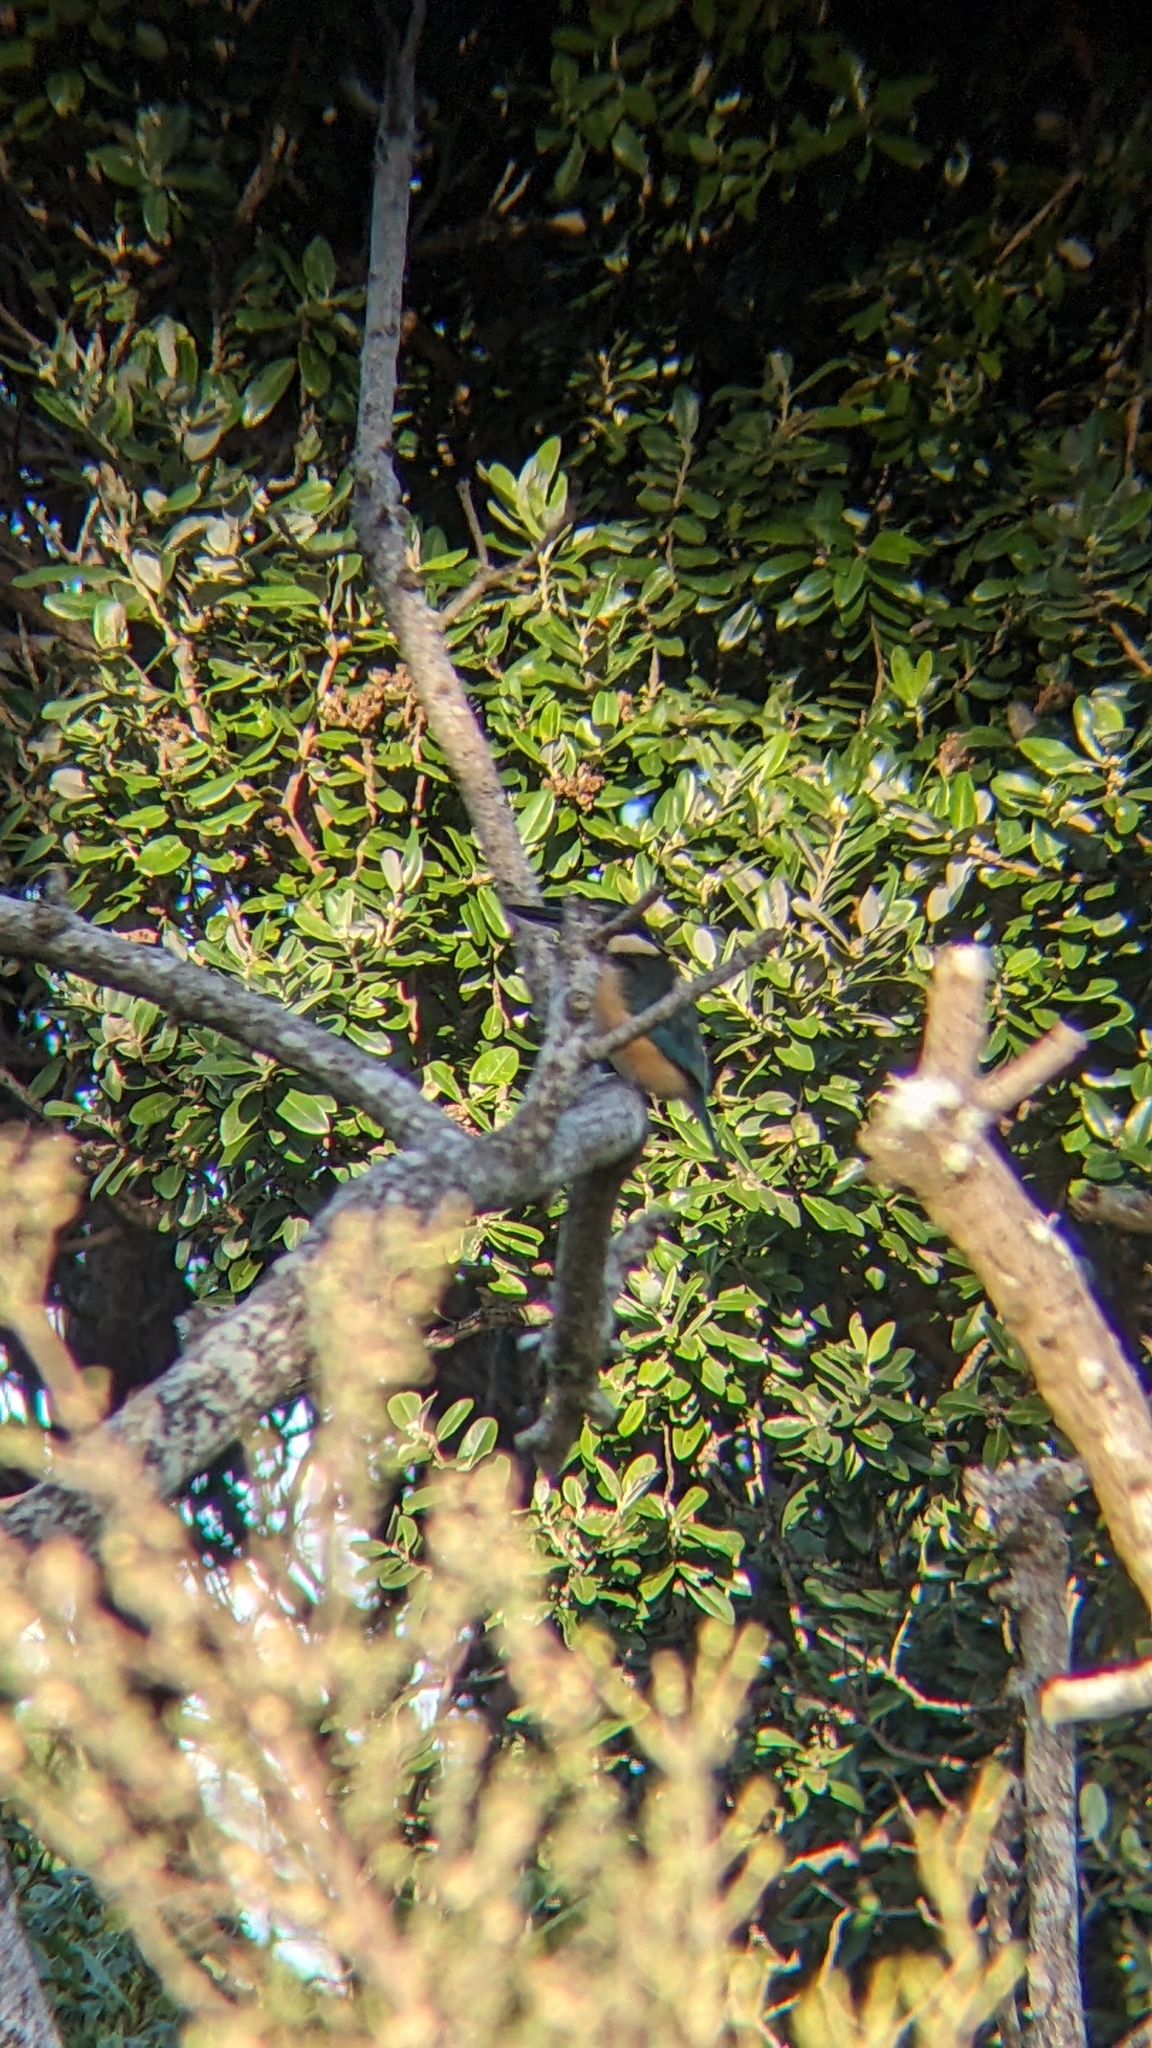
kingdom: Animalia
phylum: Chordata
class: Aves
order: Coraciiformes
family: Alcedinidae
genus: Todiramphus
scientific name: Todiramphus sanctus
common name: Sacred kingfisher
